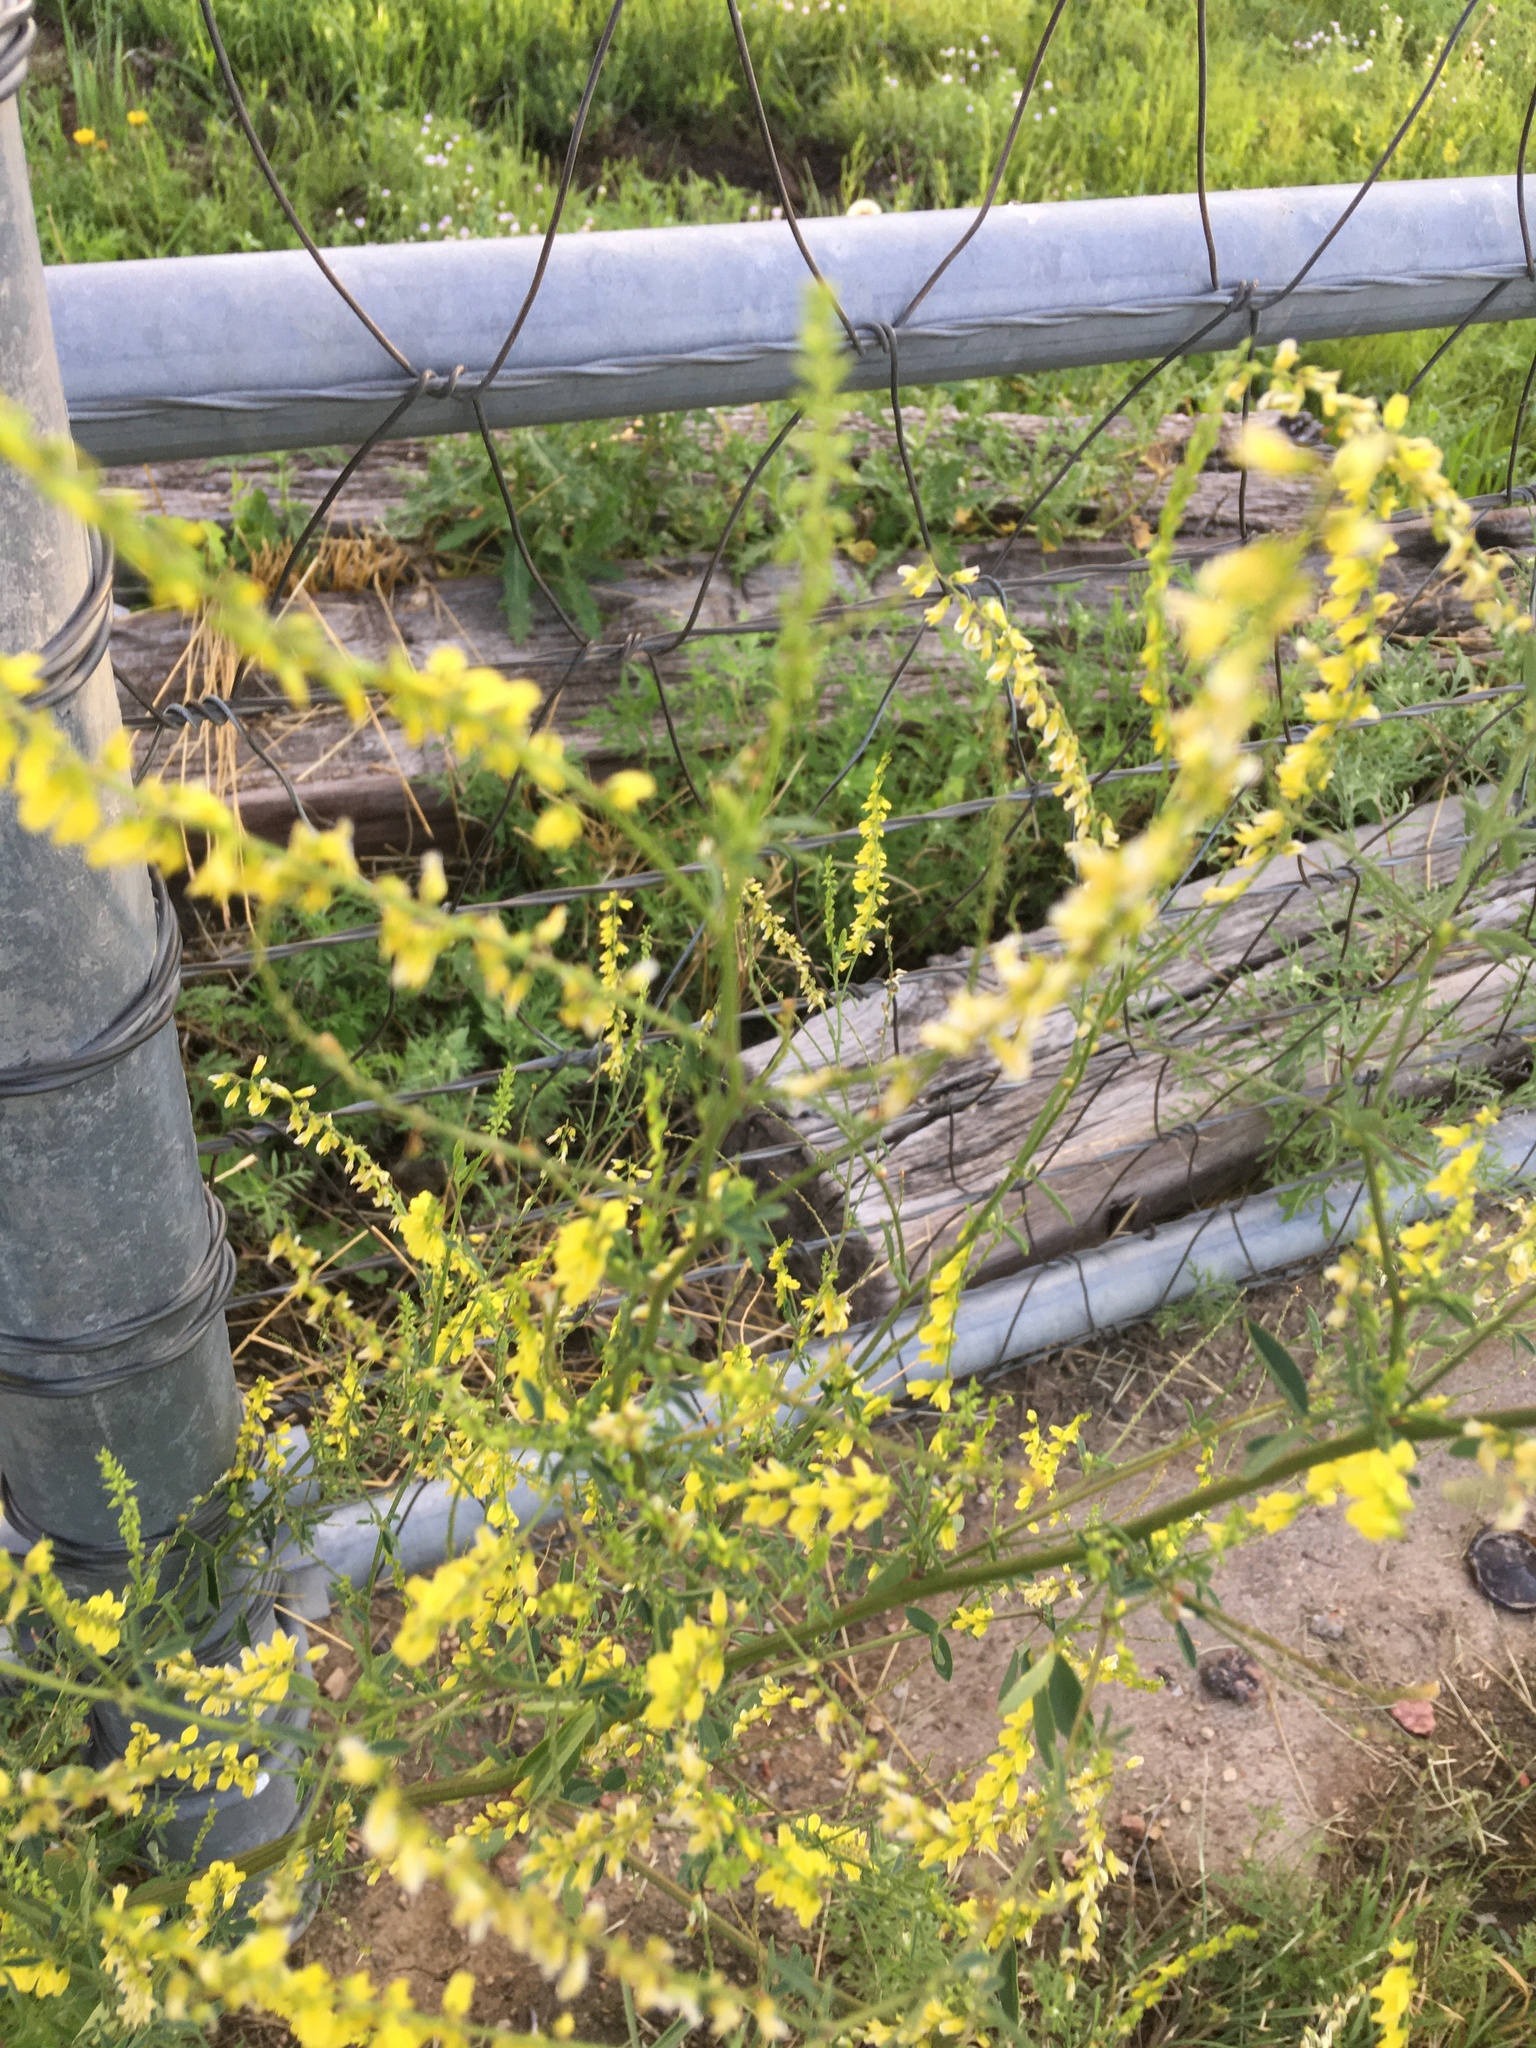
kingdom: Plantae
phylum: Tracheophyta
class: Magnoliopsida
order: Fabales
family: Fabaceae
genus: Melilotus
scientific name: Melilotus officinalis
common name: Sweetclover
